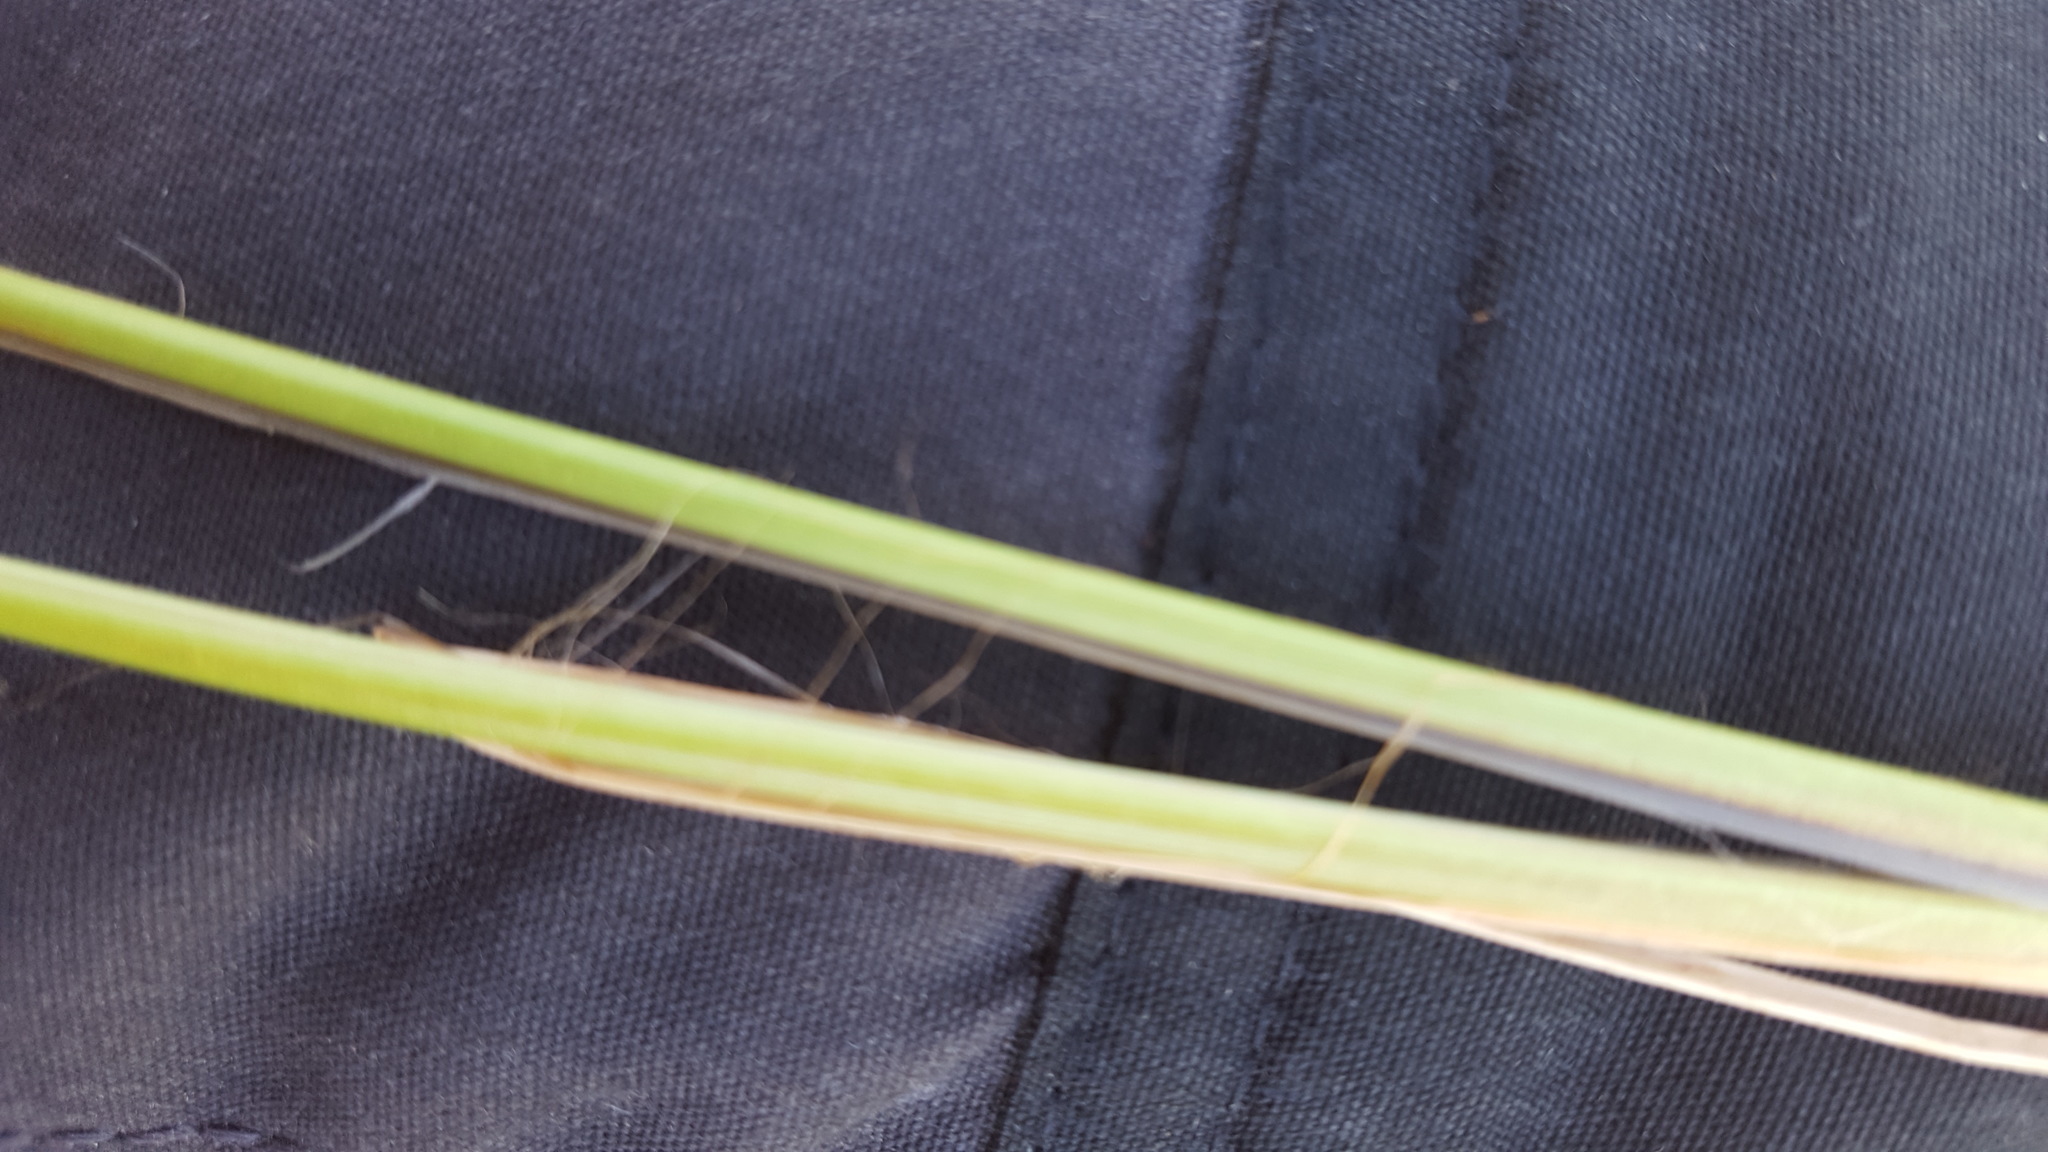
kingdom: Plantae
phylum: Tracheophyta
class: Liliopsida
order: Poales
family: Cyperaceae
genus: Carex
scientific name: Carex lasiocarpa
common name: Slender sedge
